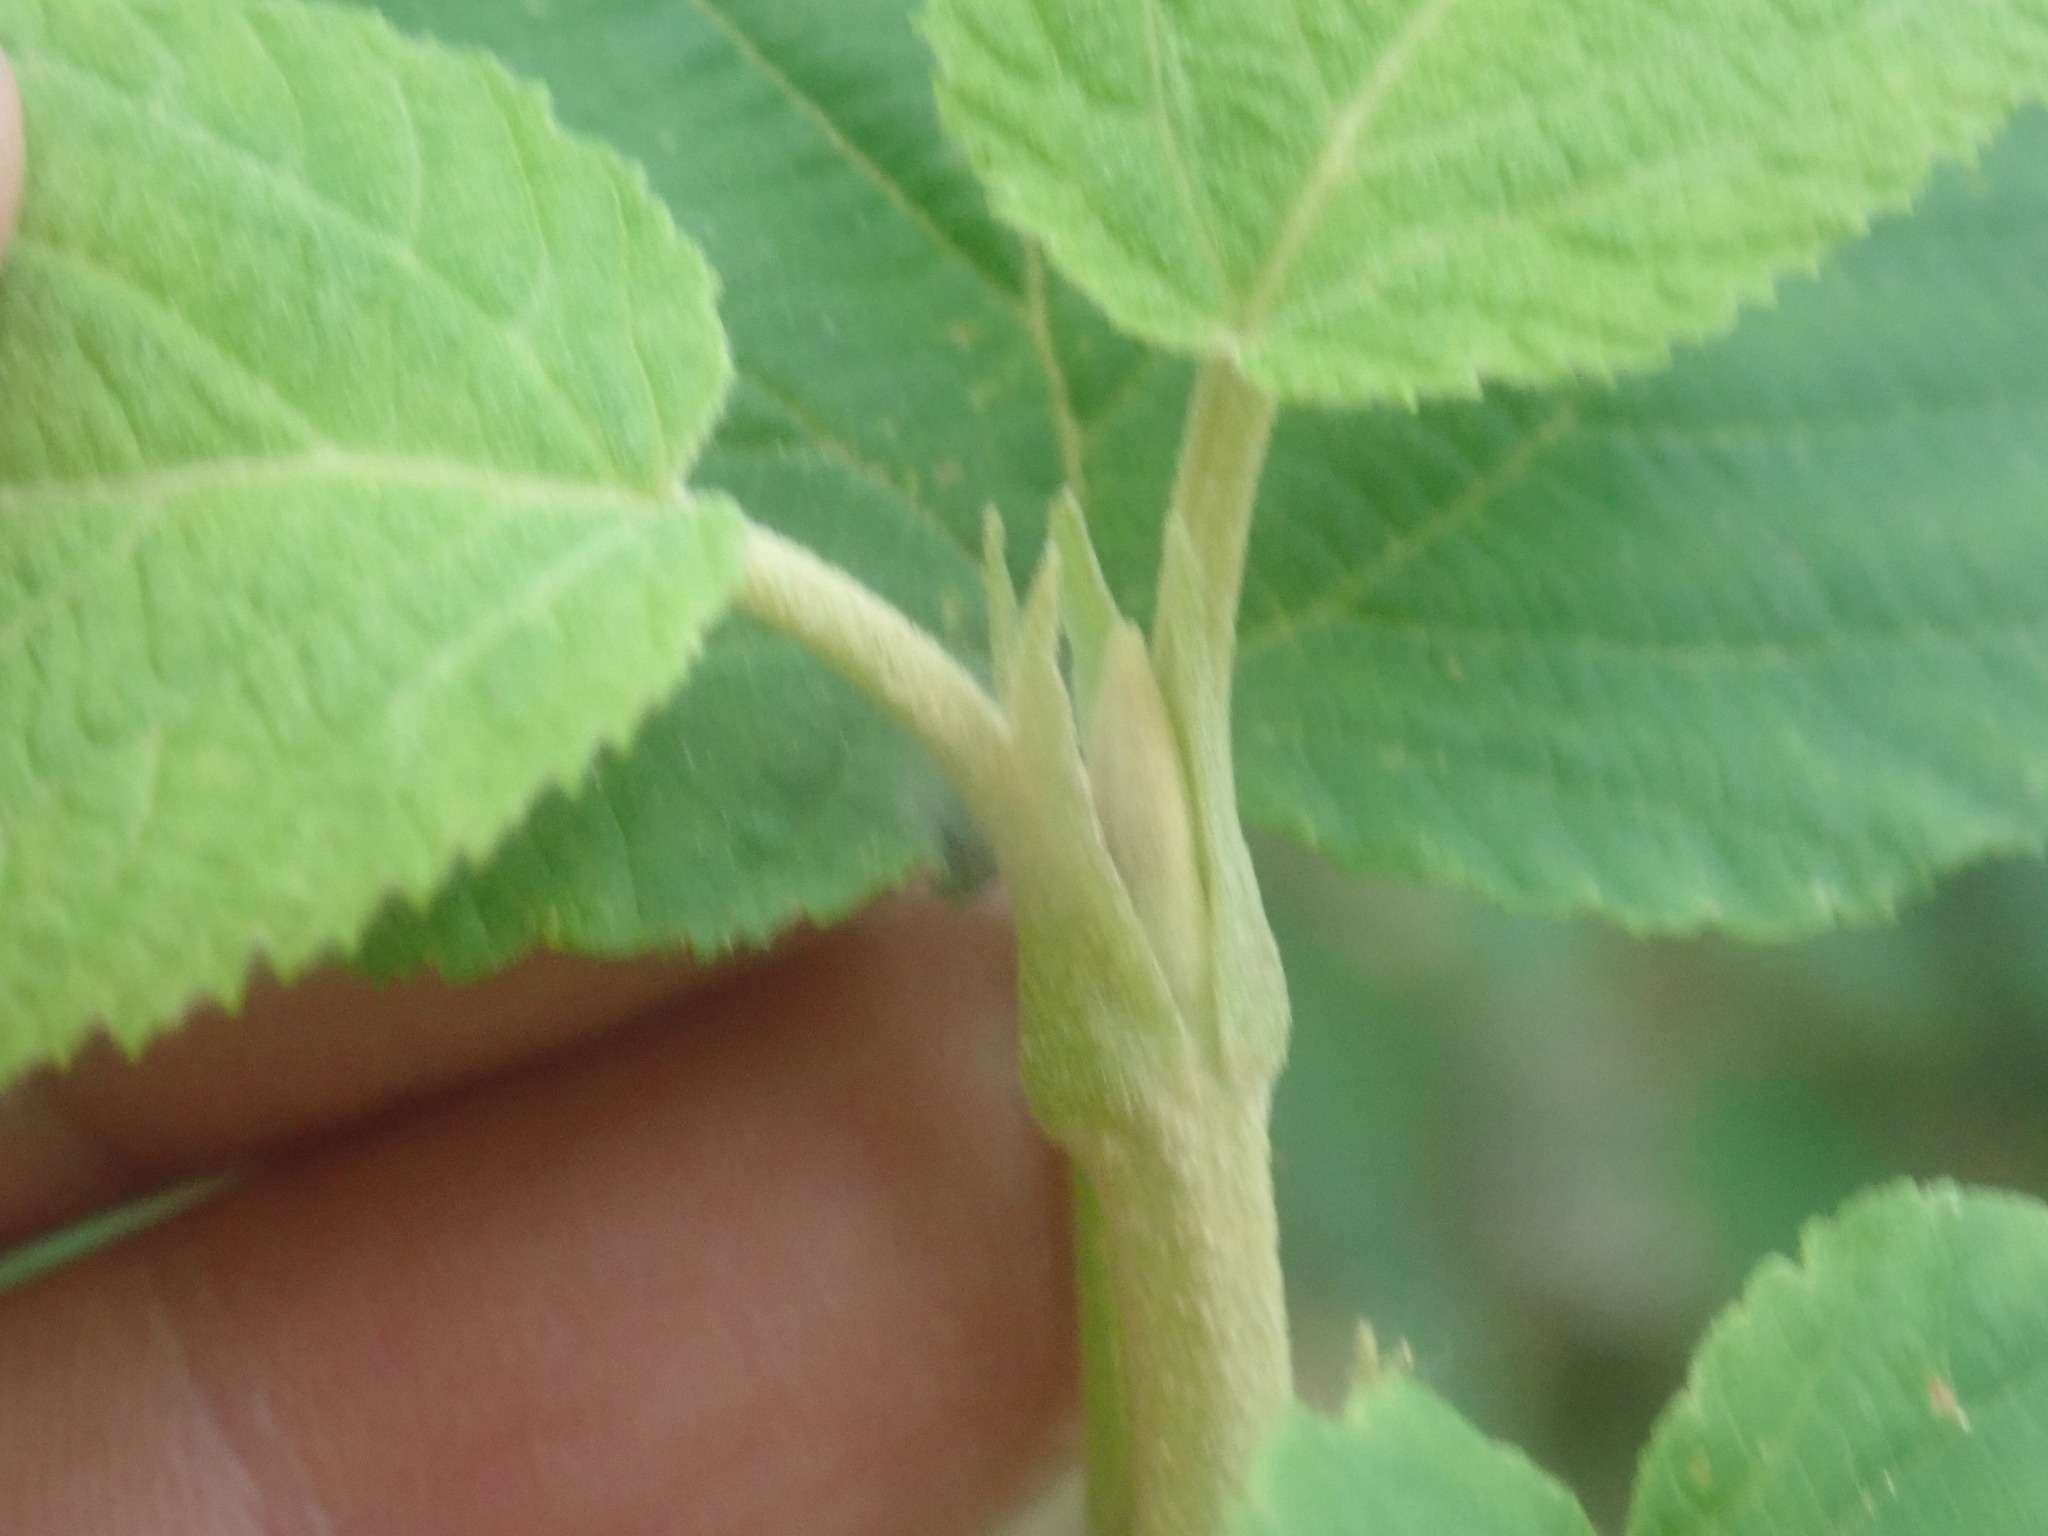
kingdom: Plantae
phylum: Tracheophyta
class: Magnoliopsida
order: Dipsacales
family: Viburnaceae
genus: Viburnum
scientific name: Viburnum lantanoides
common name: Hobblebush
